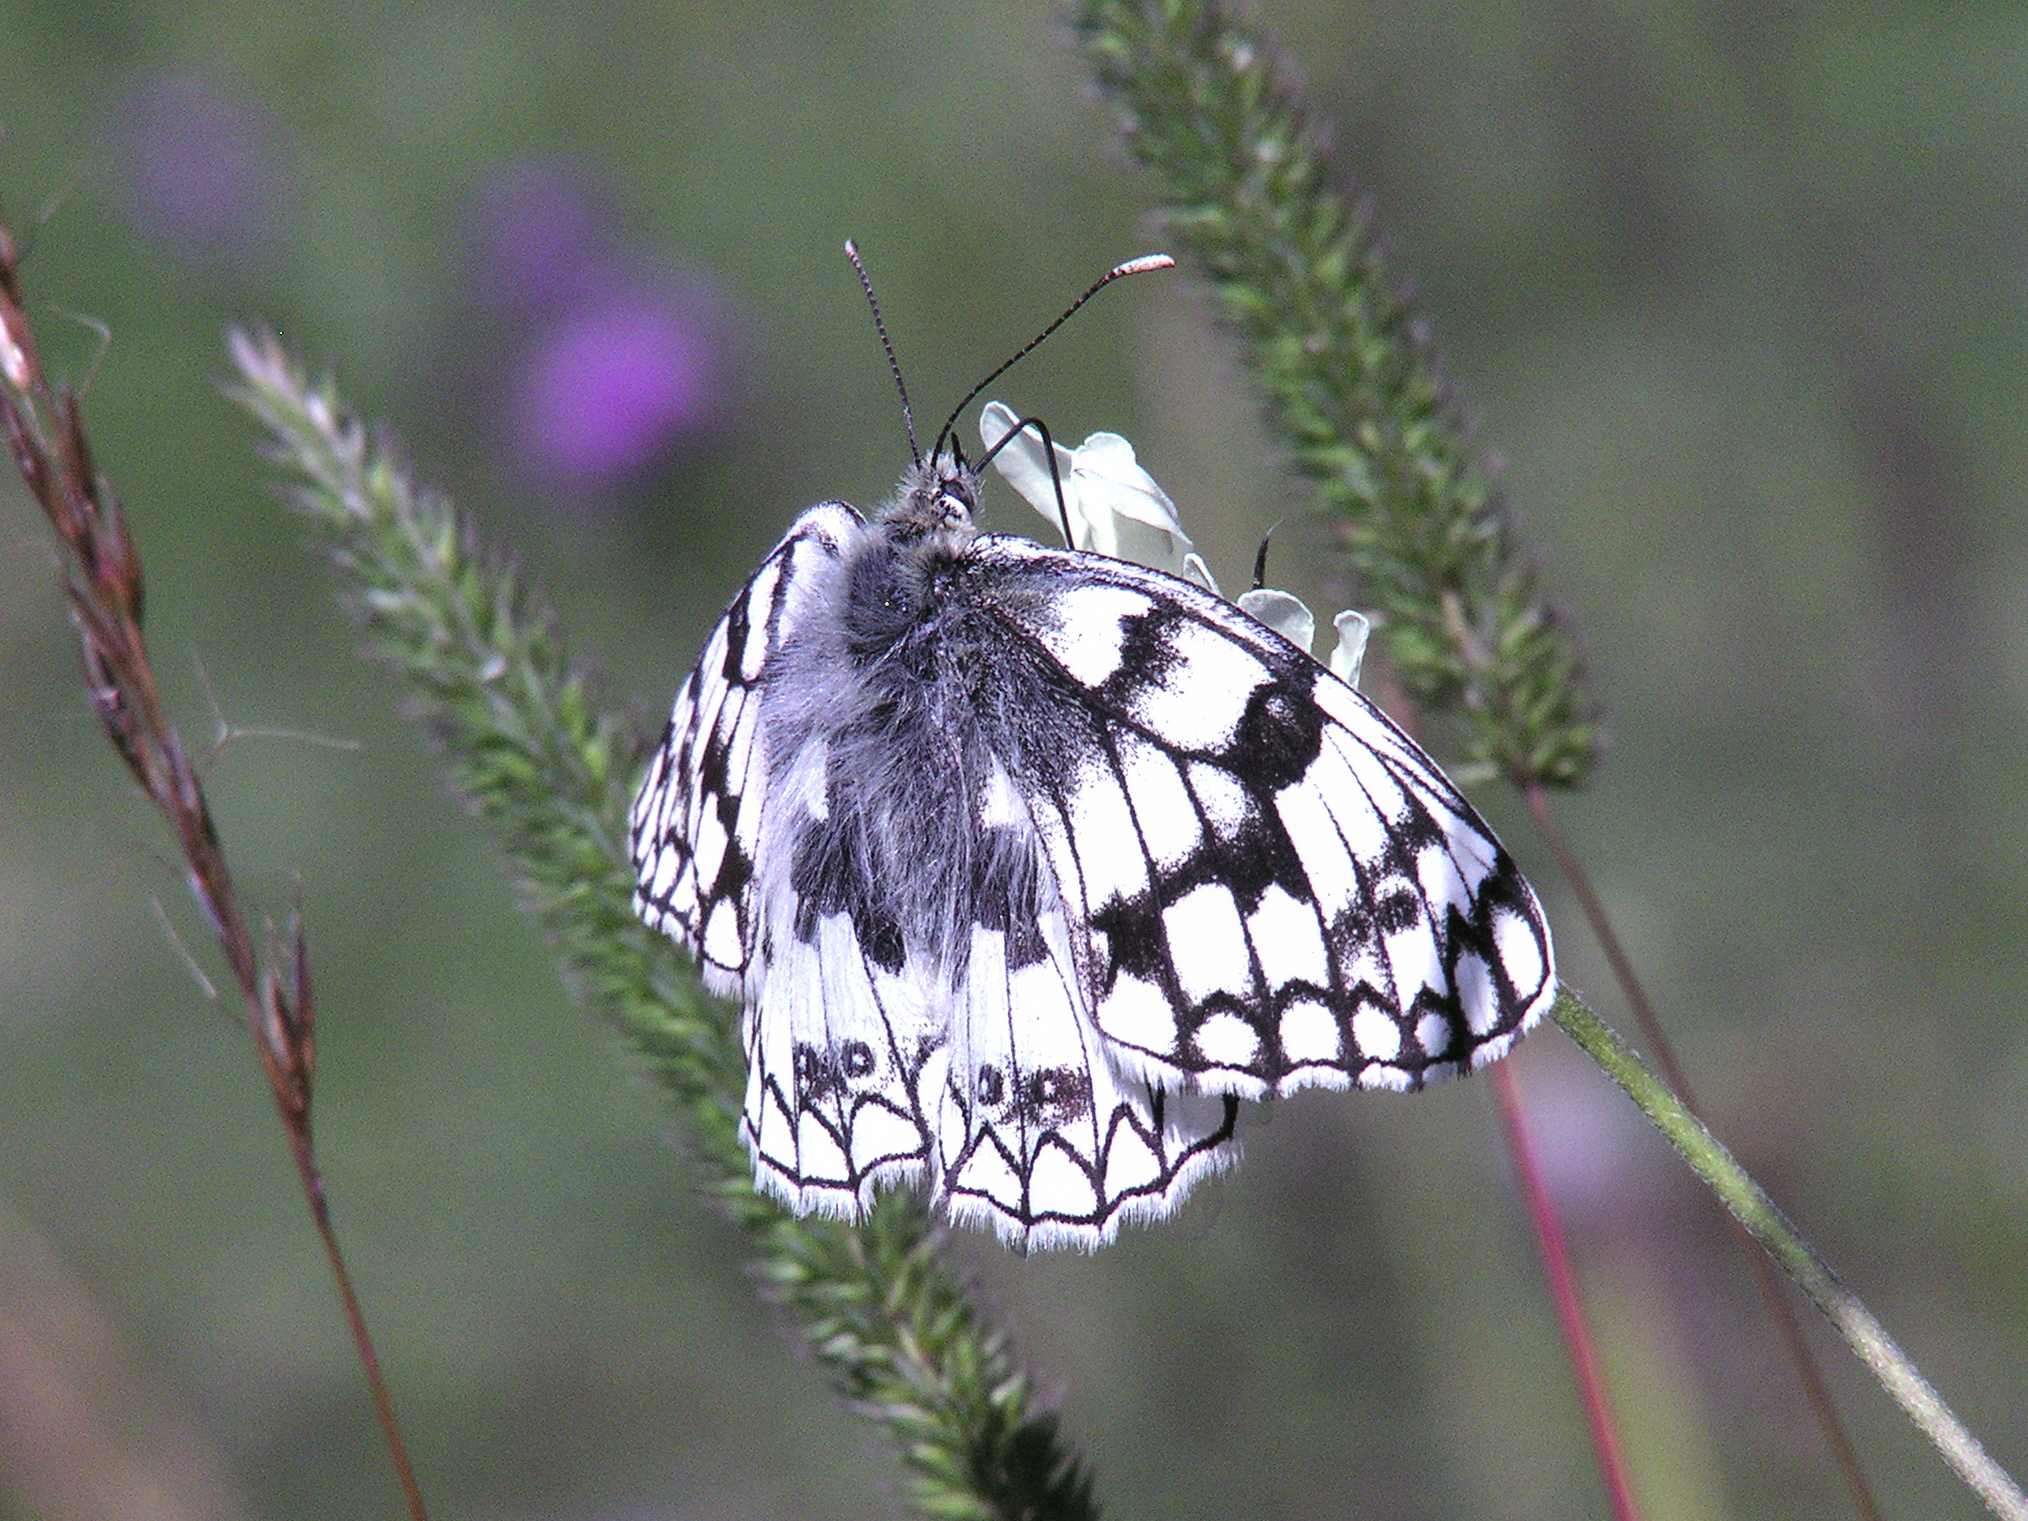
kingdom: Animalia
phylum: Arthropoda
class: Insecta
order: Lepidoptera
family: Nymphalidae
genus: Melanargia
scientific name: Melanargia japygia
